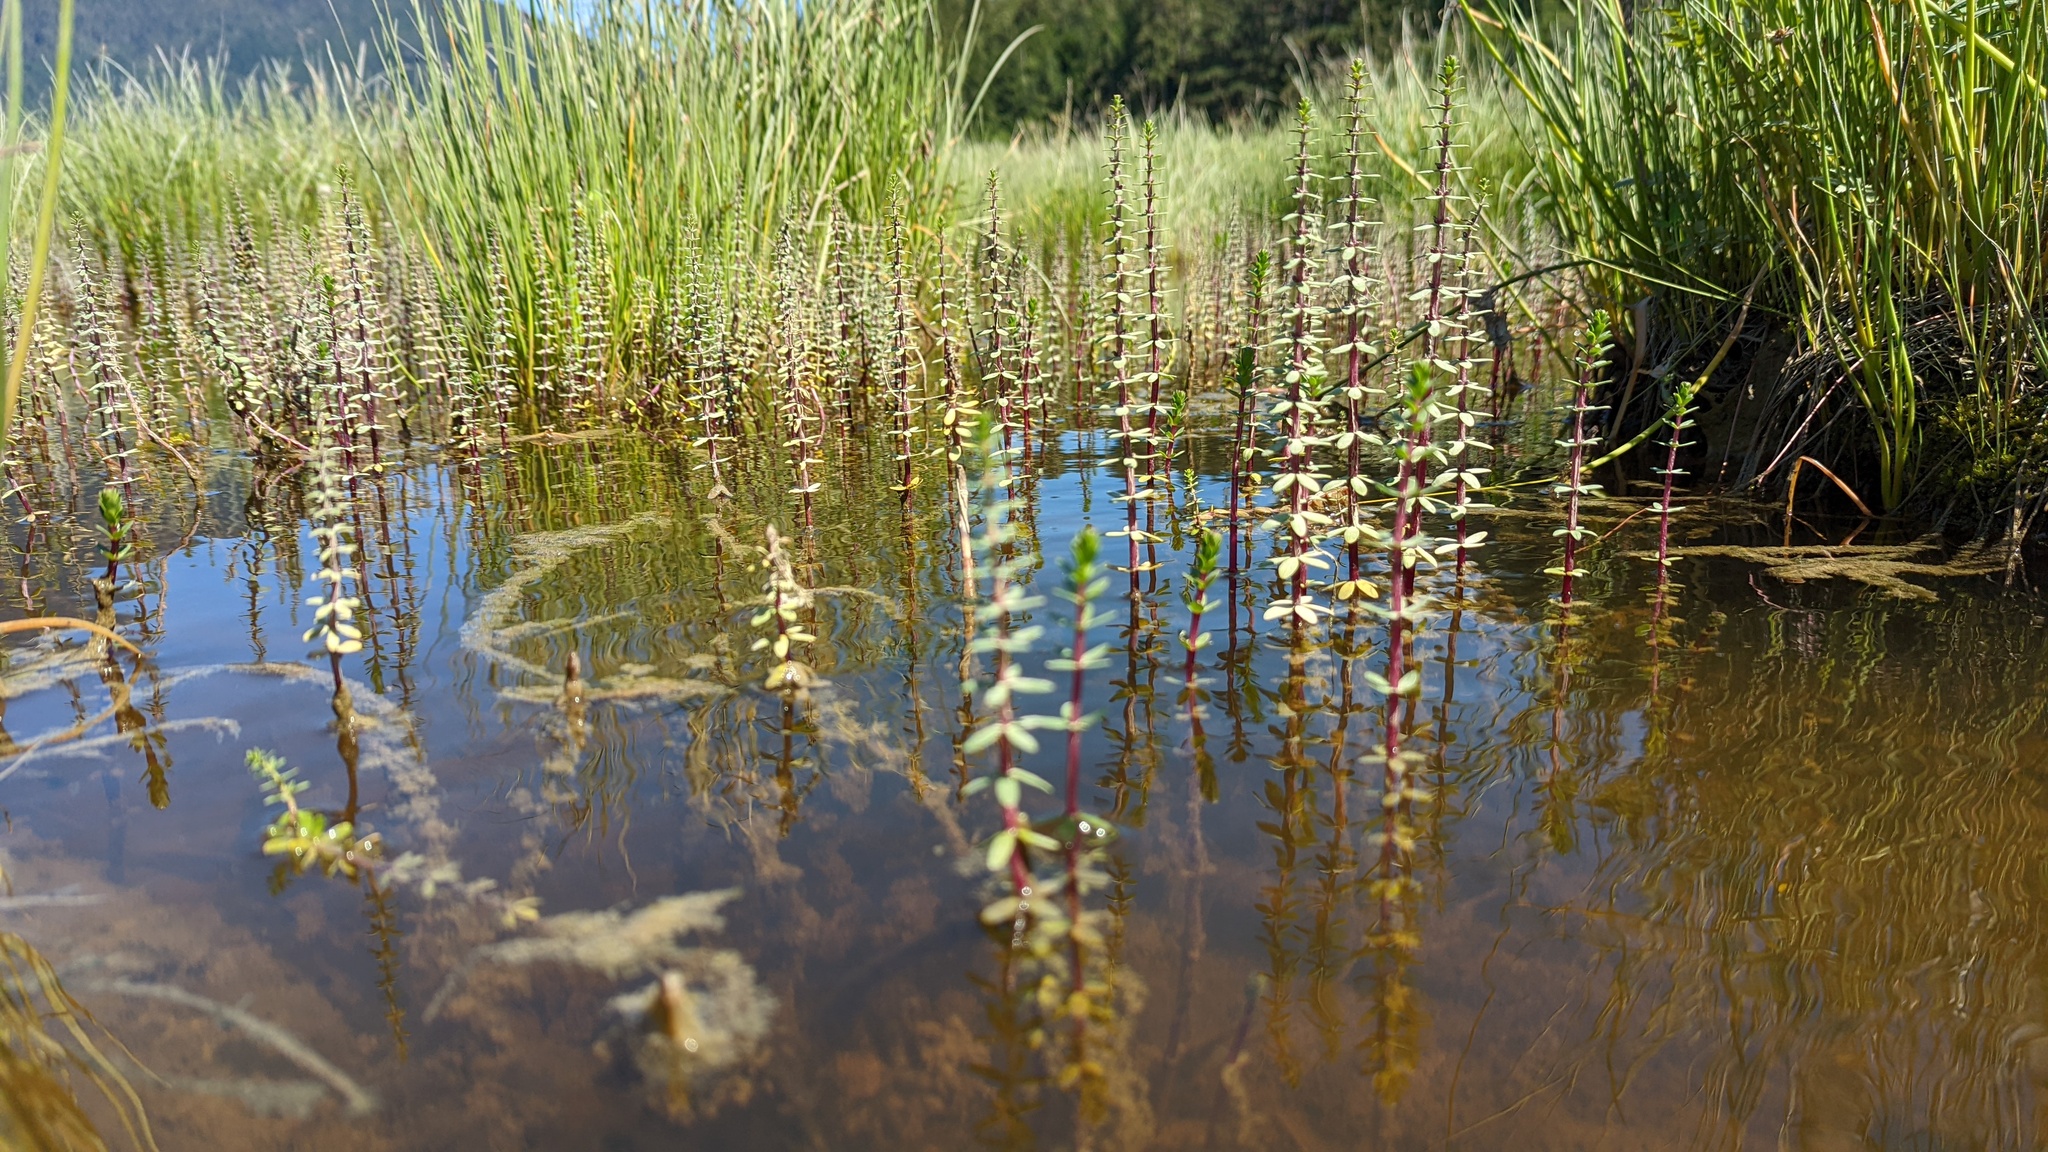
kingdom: Plantae
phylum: Tracheophyta
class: Magnoliopsida
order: Lamiales
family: Plantaginaceae
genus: Hippuris
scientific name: Hippuris tetraphylla
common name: Four-leaved mare's-tail
